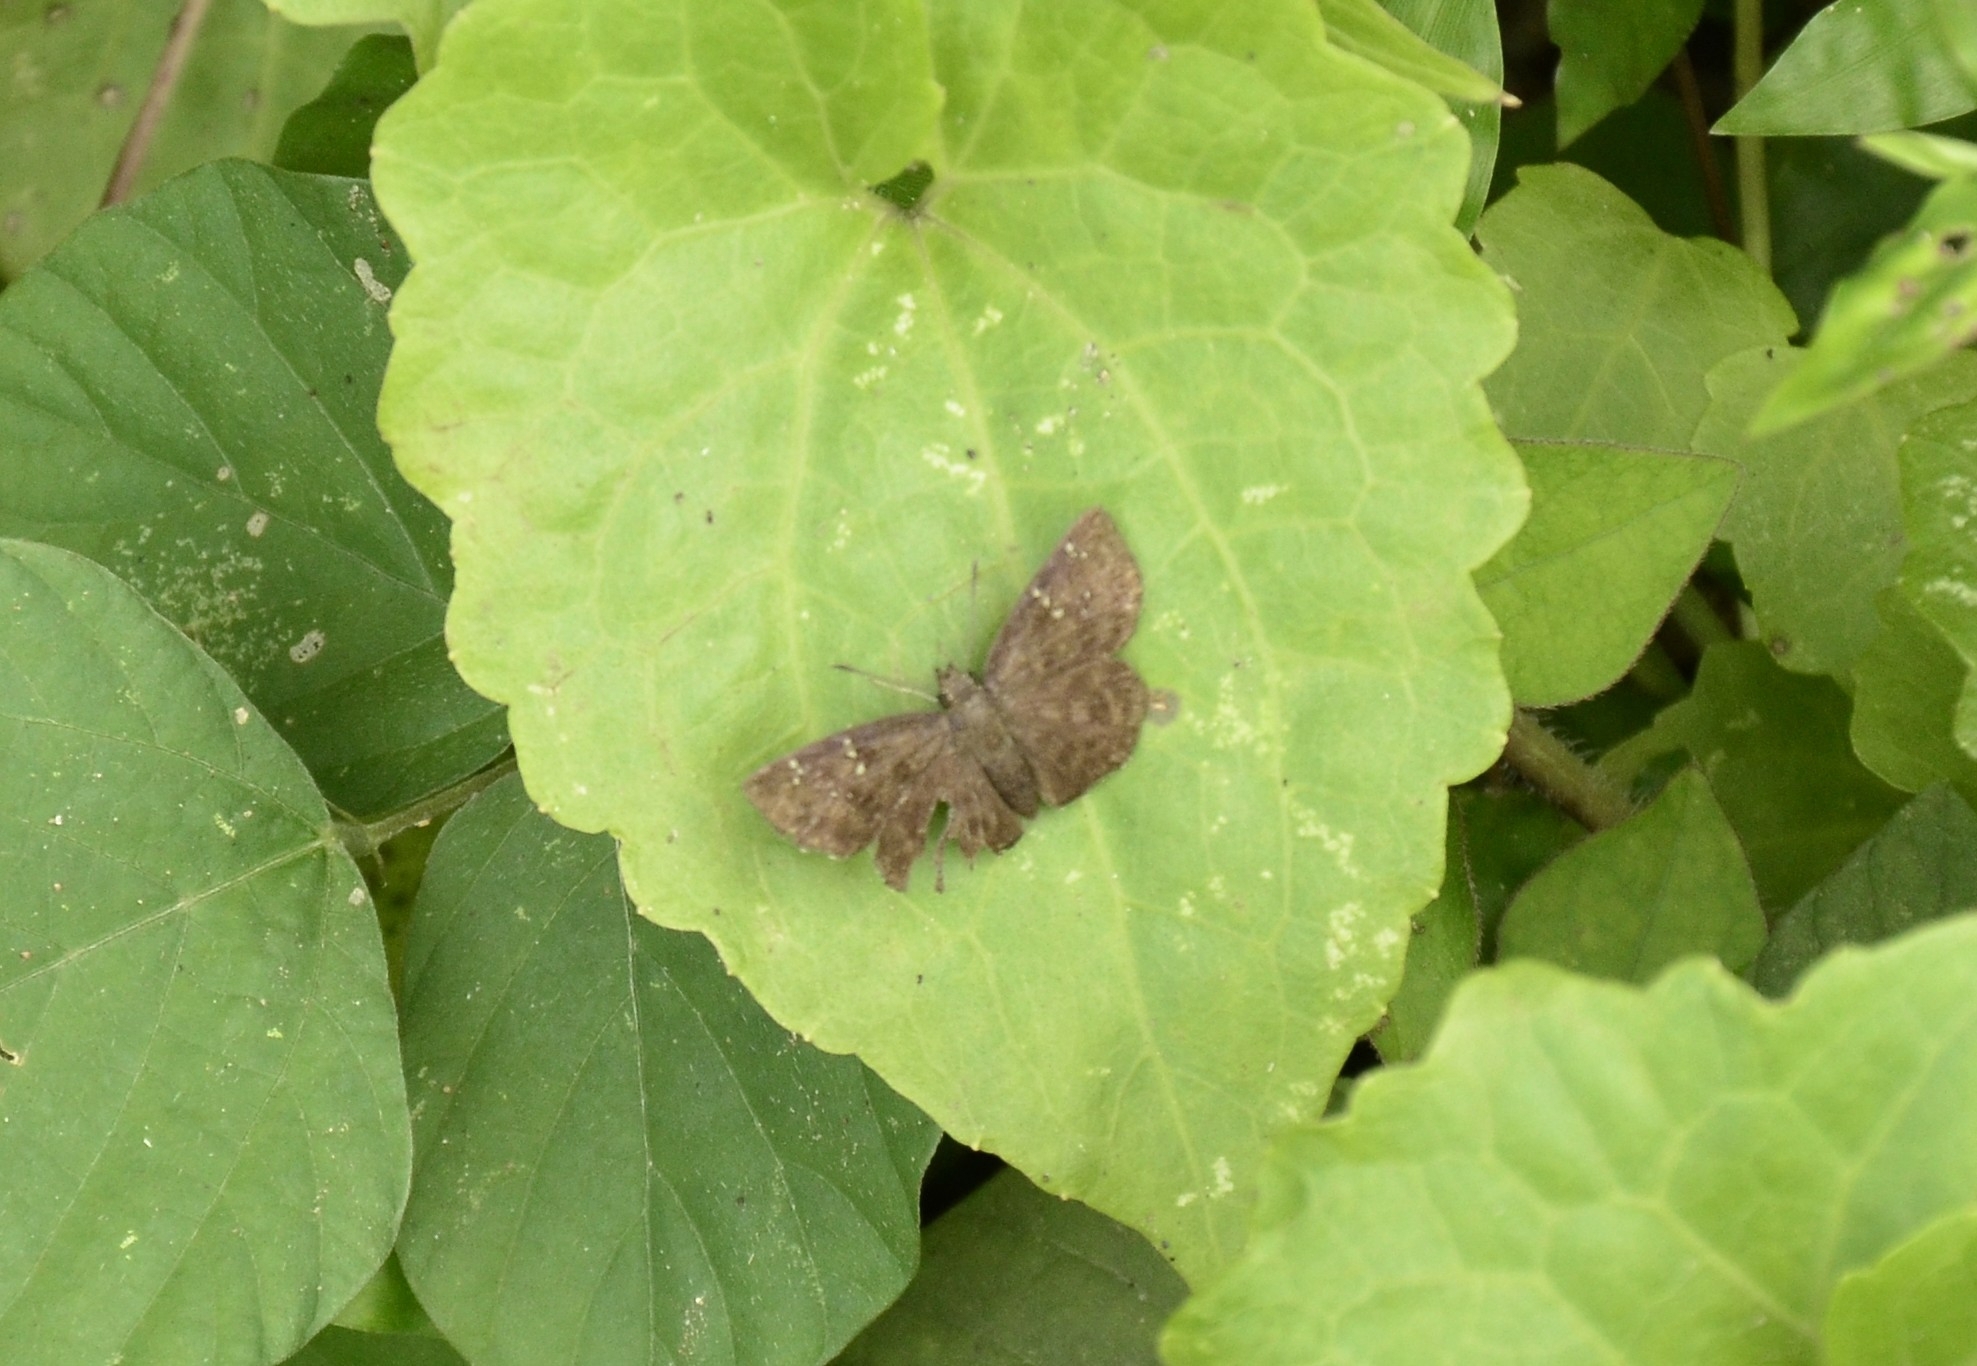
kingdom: Animalia
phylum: Arthropoda
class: Insecta
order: Lepidoptera
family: Hesperiidae
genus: Sarangesa
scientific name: Sarangesa dasahara
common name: Common small flat
